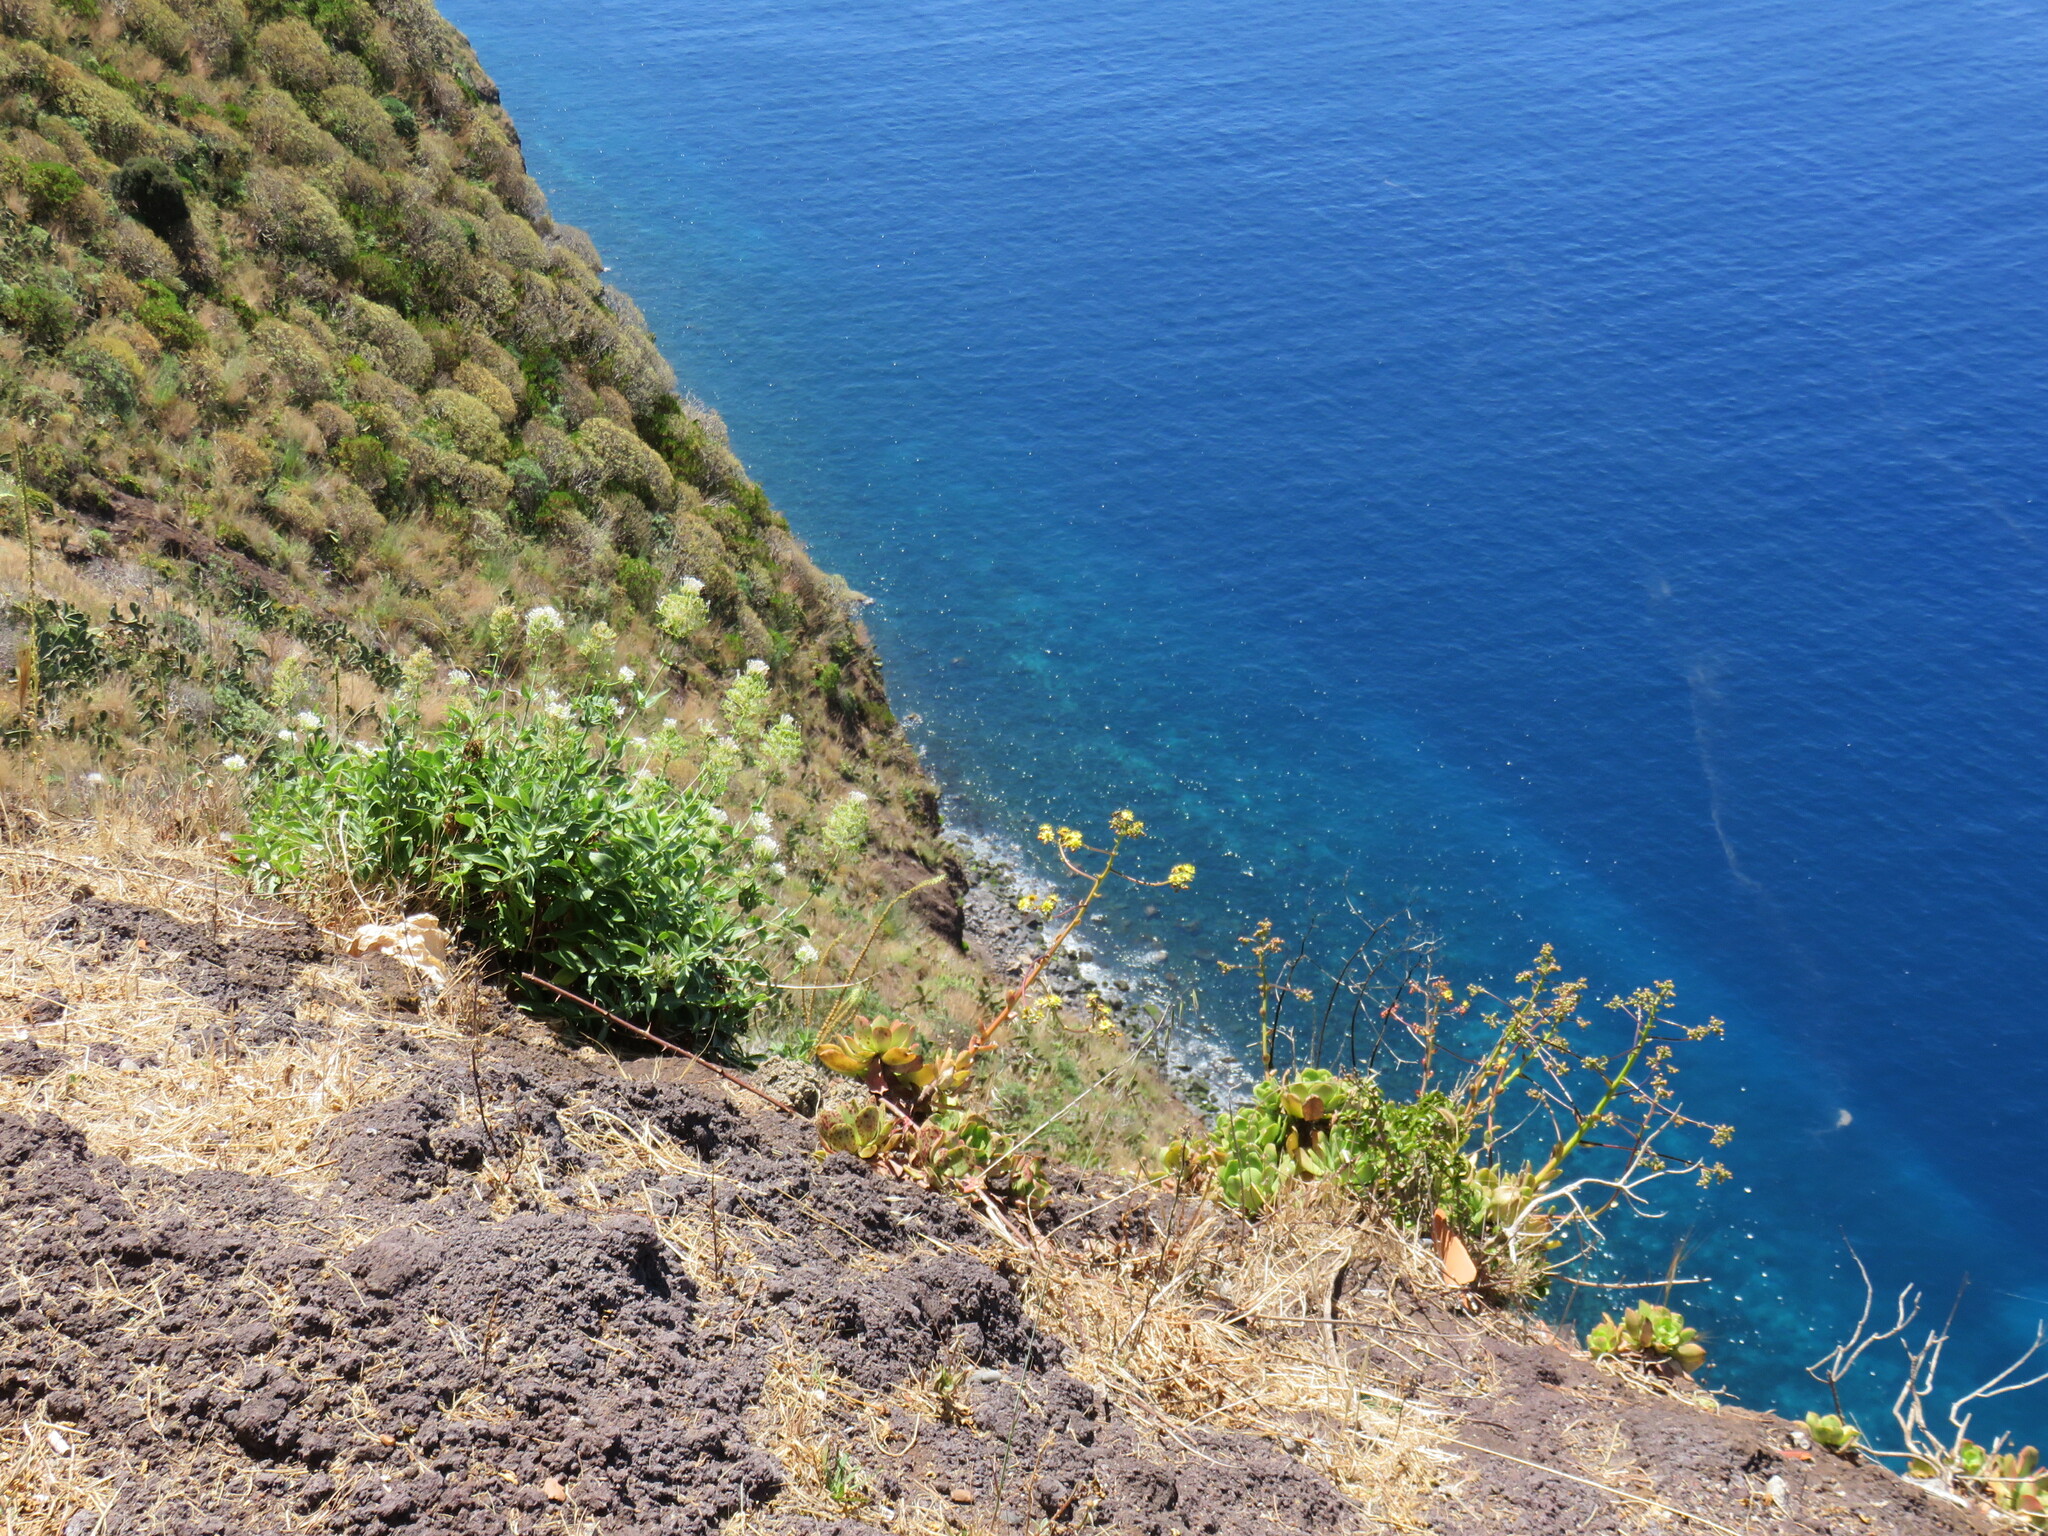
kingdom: Plantae
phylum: Tracheophyta
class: Magnoliopsida
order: Saxifragales
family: Crassulaceae
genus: Aeonium
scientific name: Aeonium glutinosum
